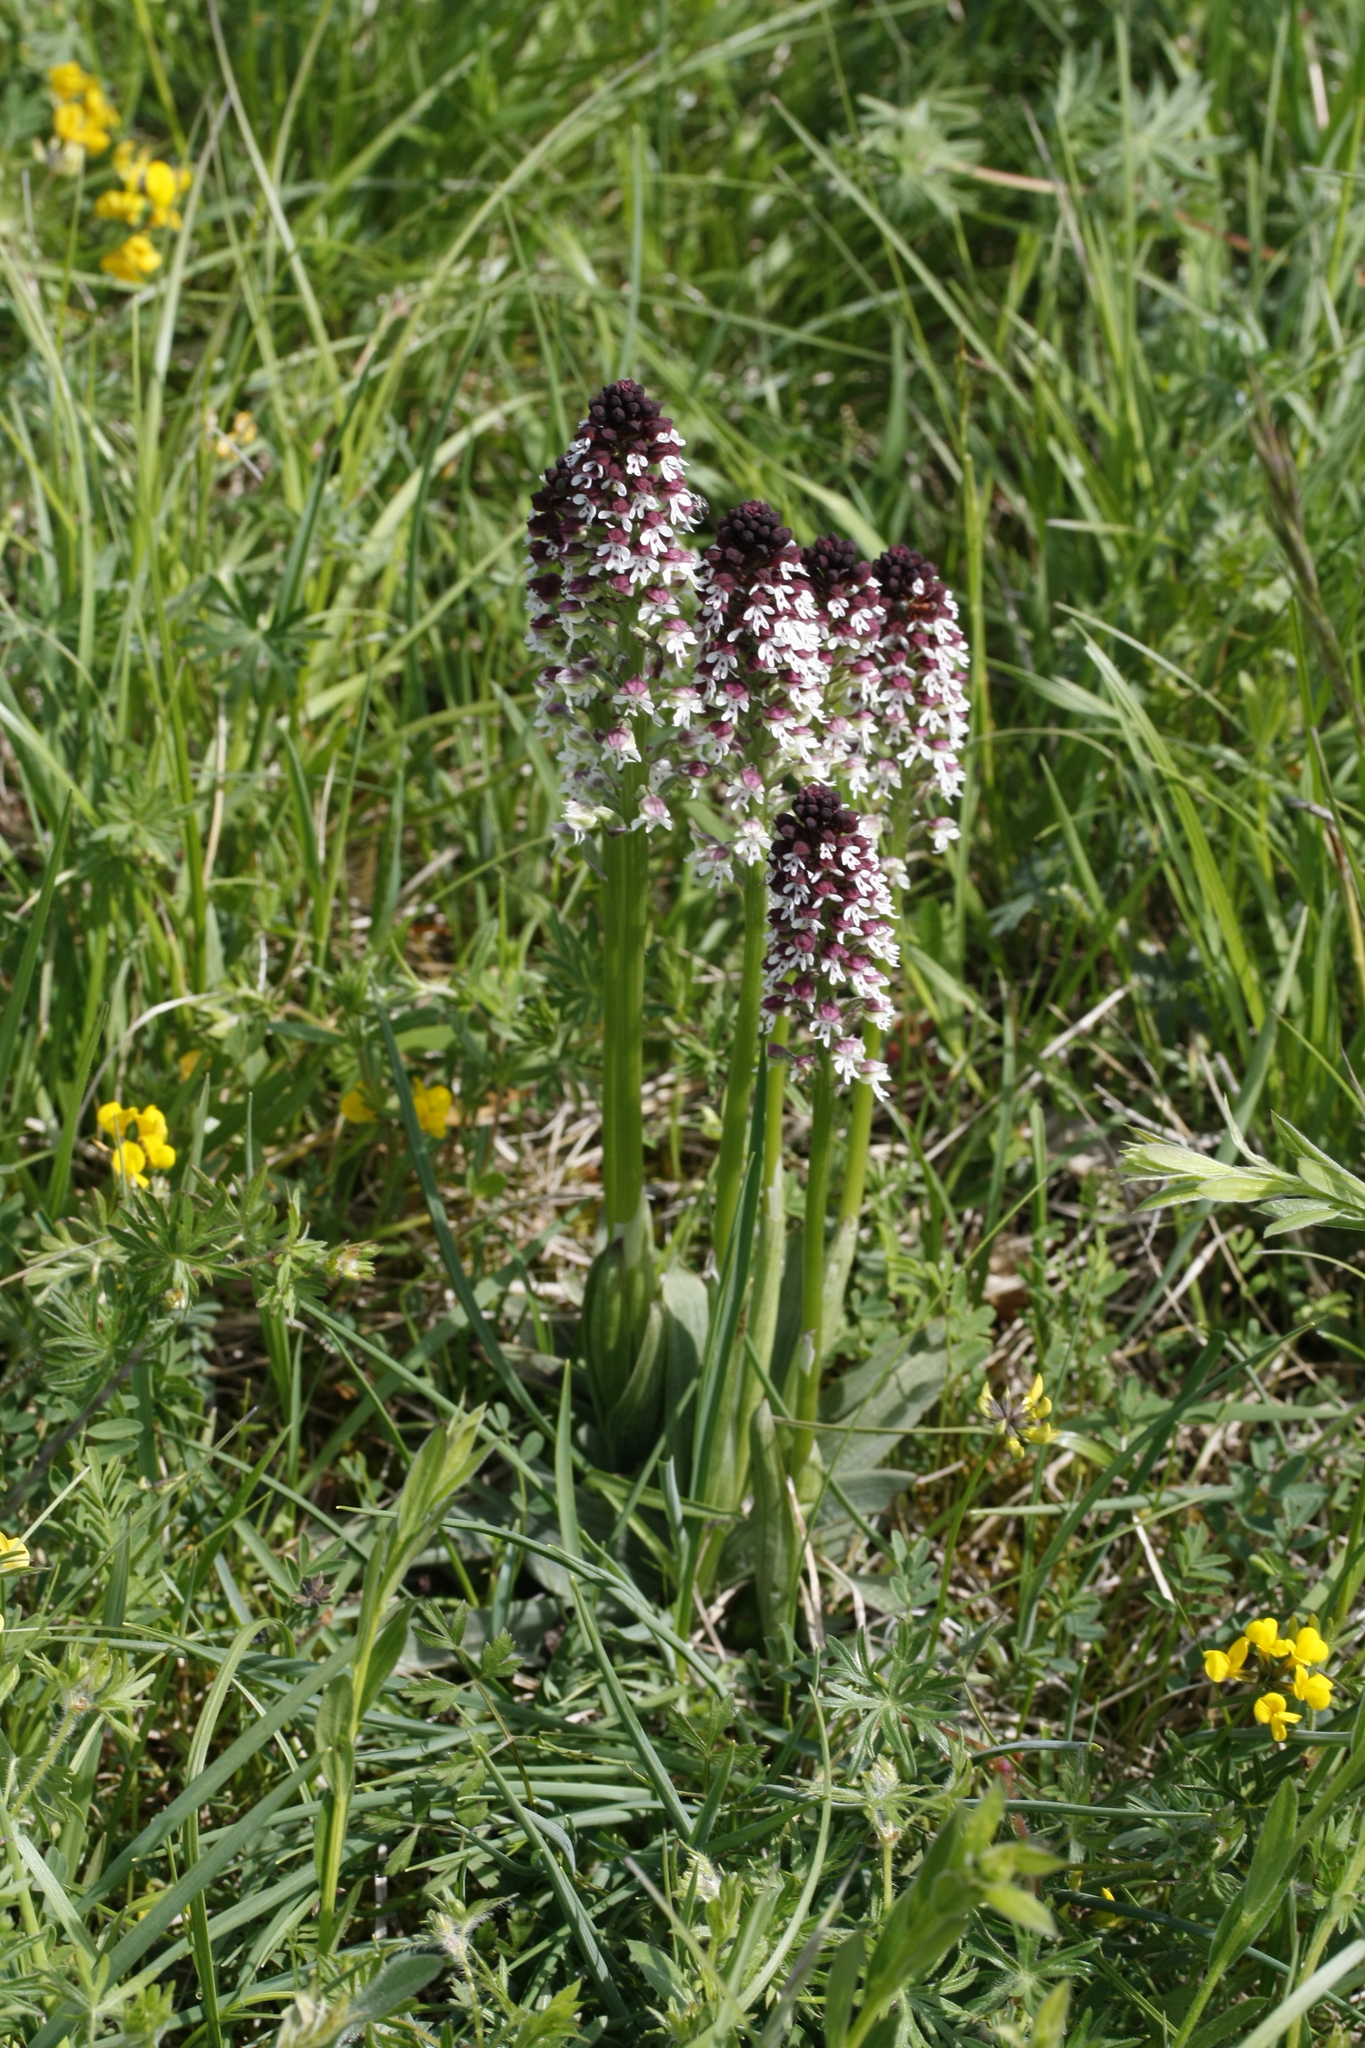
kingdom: Plantae
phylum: Tracheophyta
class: Liliopsida
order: Asparagales
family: Orchidaceae
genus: Neotinea
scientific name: Neotinea ustulata
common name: Burnt orchid
